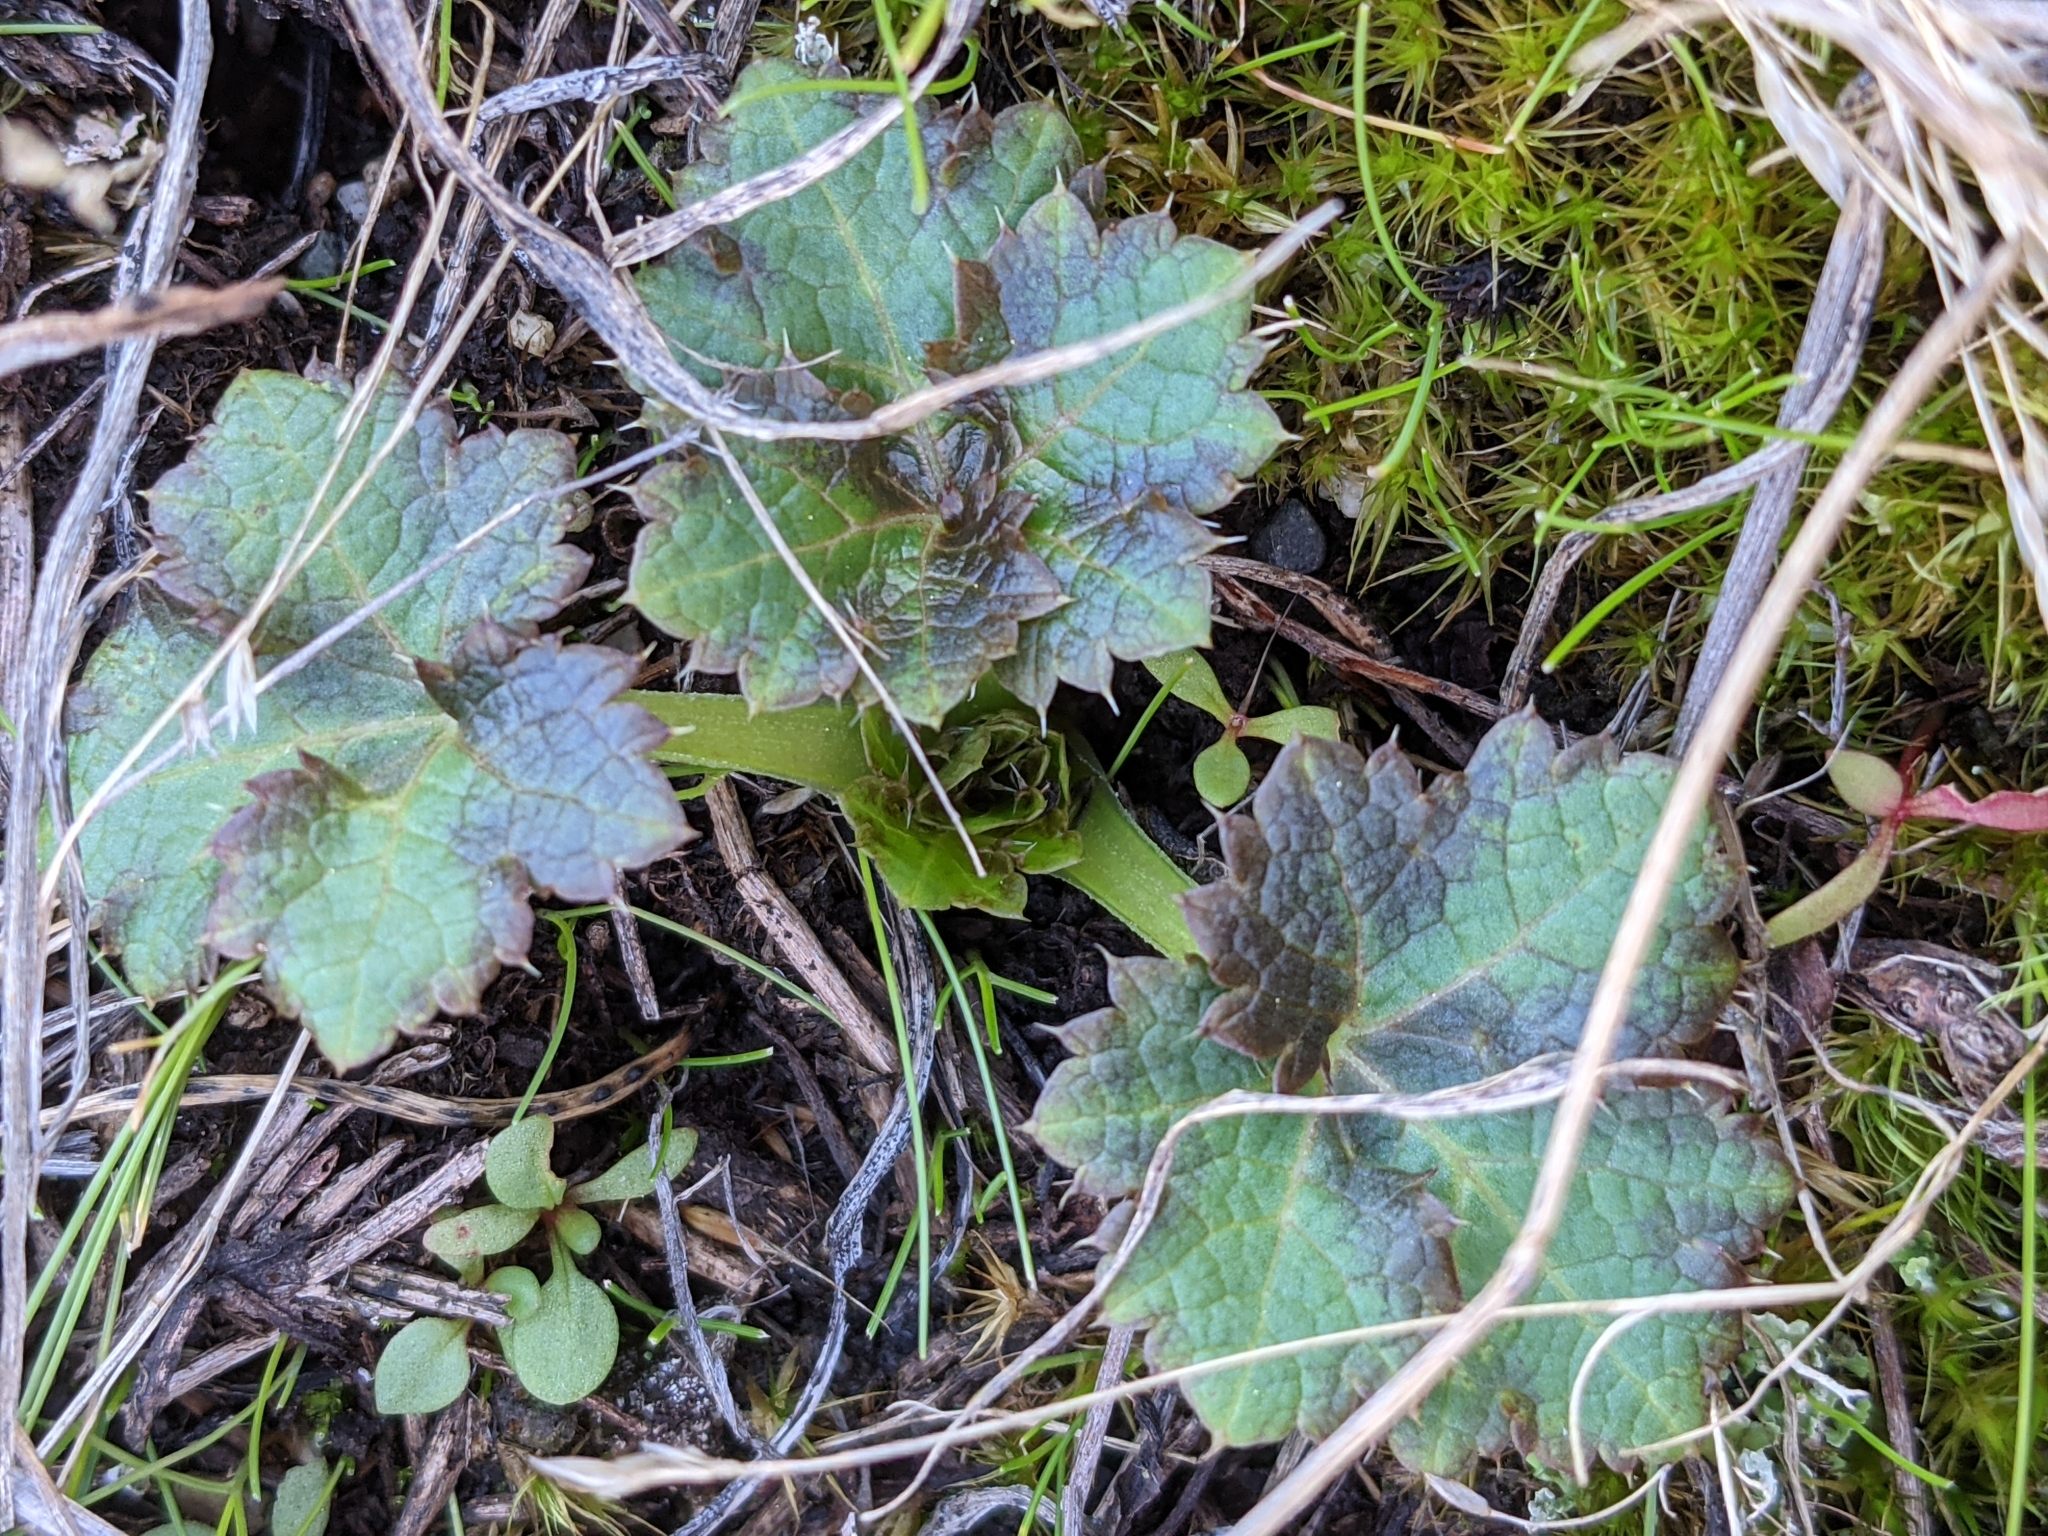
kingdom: Plantae
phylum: Tracheophyta
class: Magnoliopsida
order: Apiales
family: Apiaceae
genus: Sanicula
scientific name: Sanicula crassicaulis
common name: Western snakeroot
